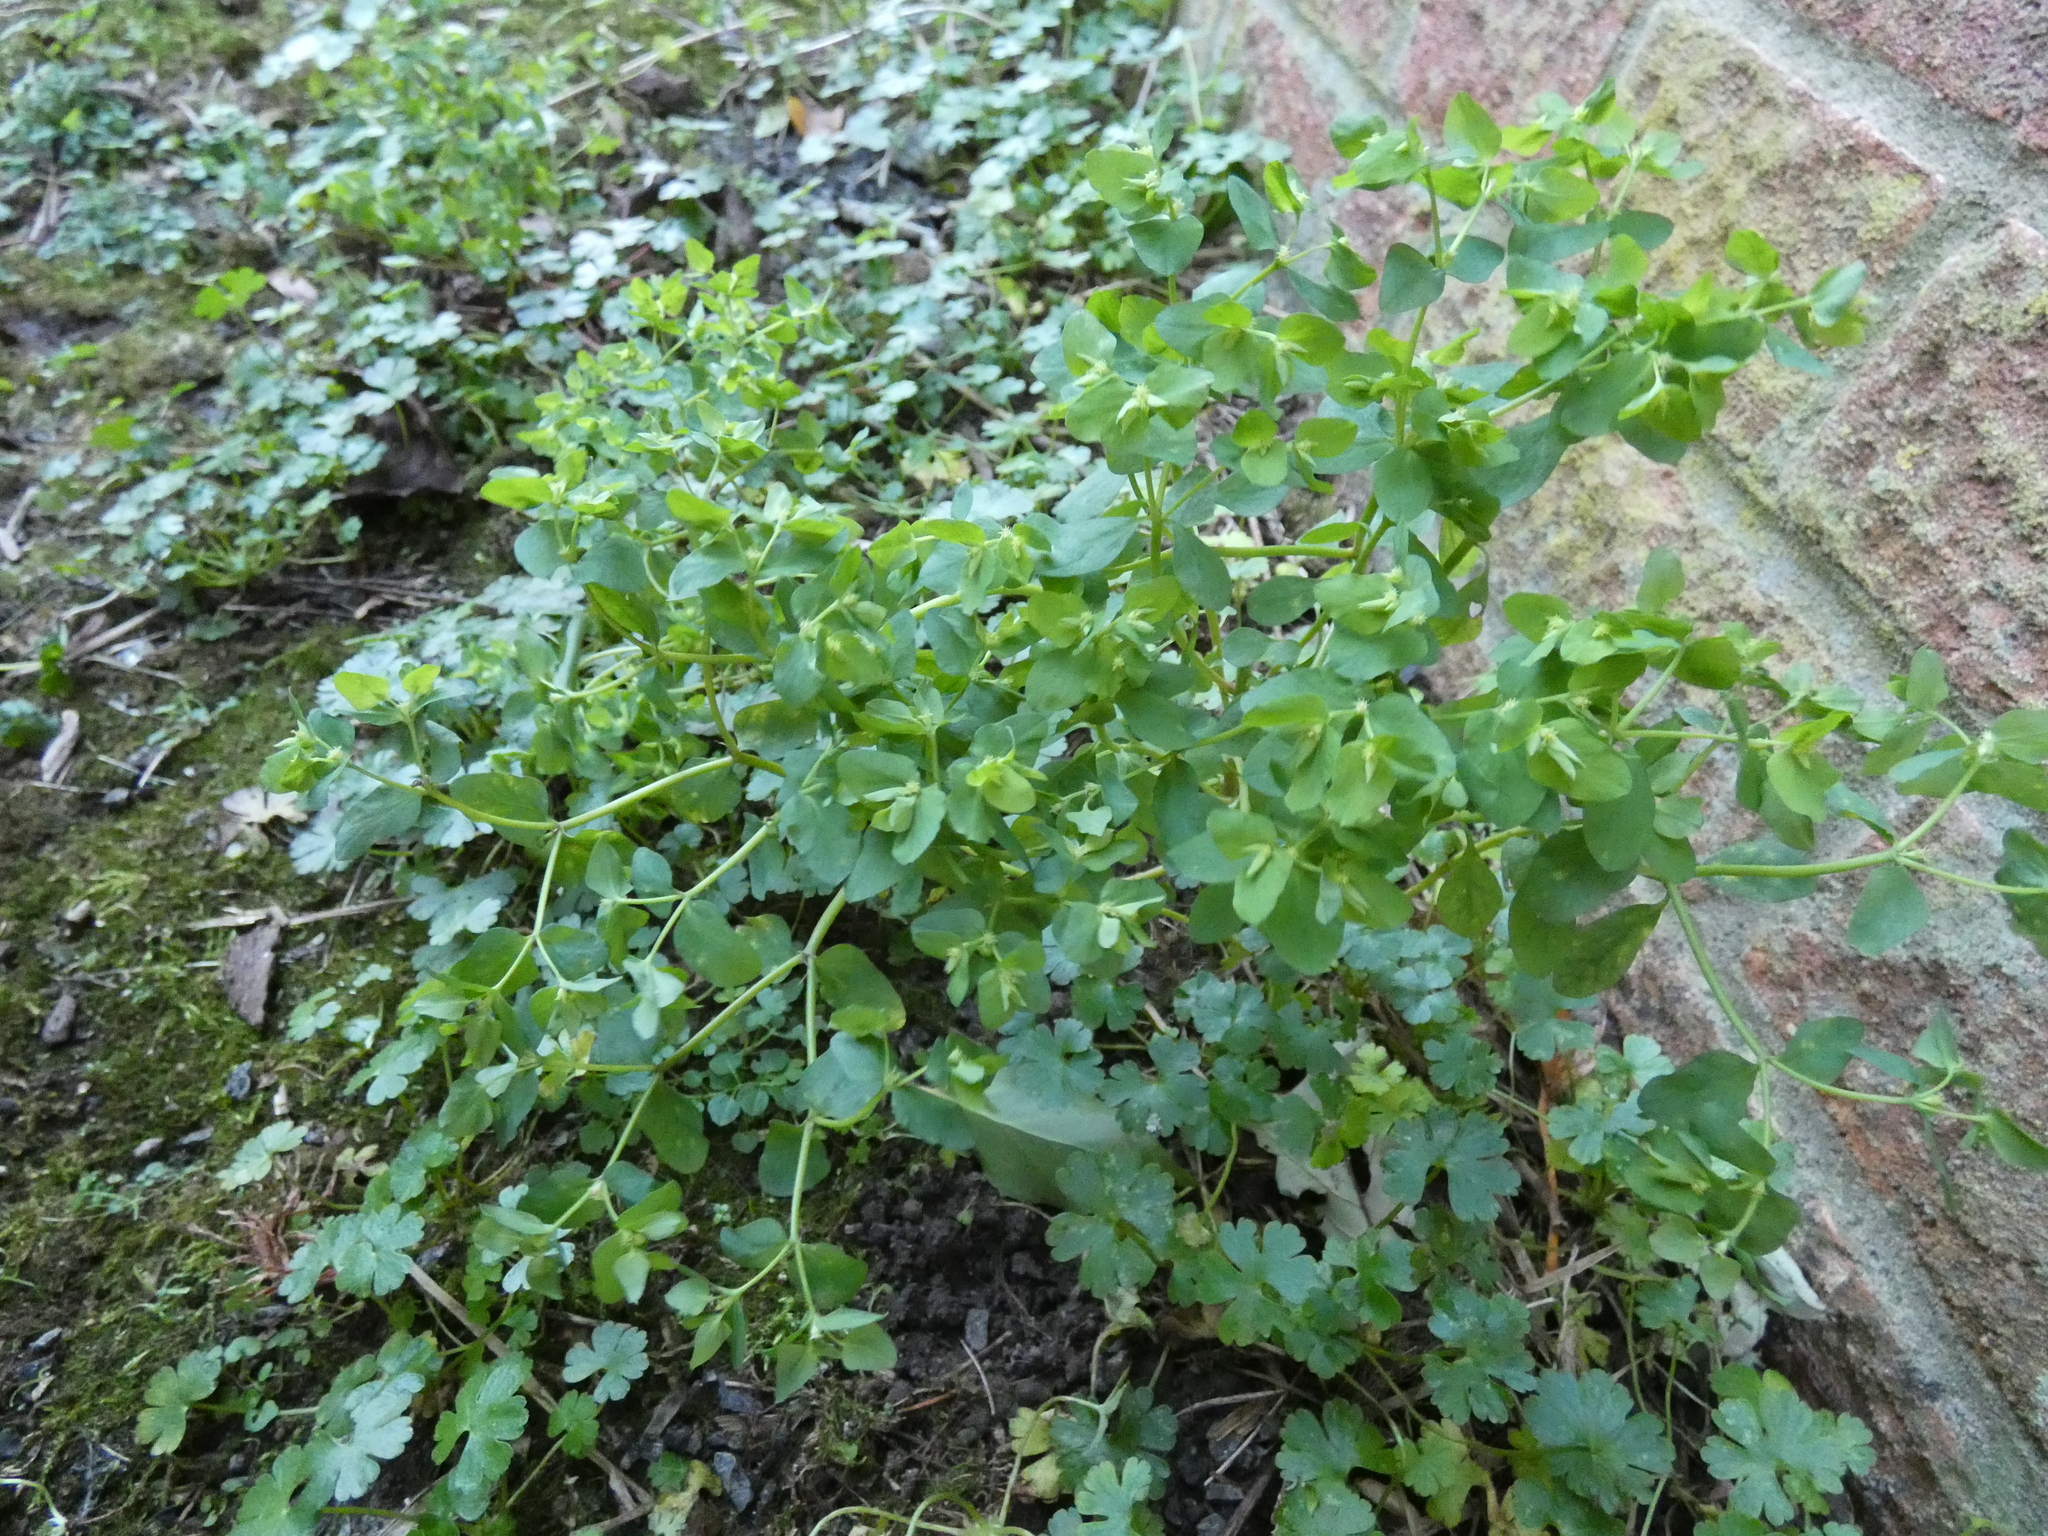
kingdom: Plantae
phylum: Tracheophyta
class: Magnoliopsida
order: Malpighiales
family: Euphorbiaceae
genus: Euphorbia
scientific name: Euphorbia peplus
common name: Petty spurge
